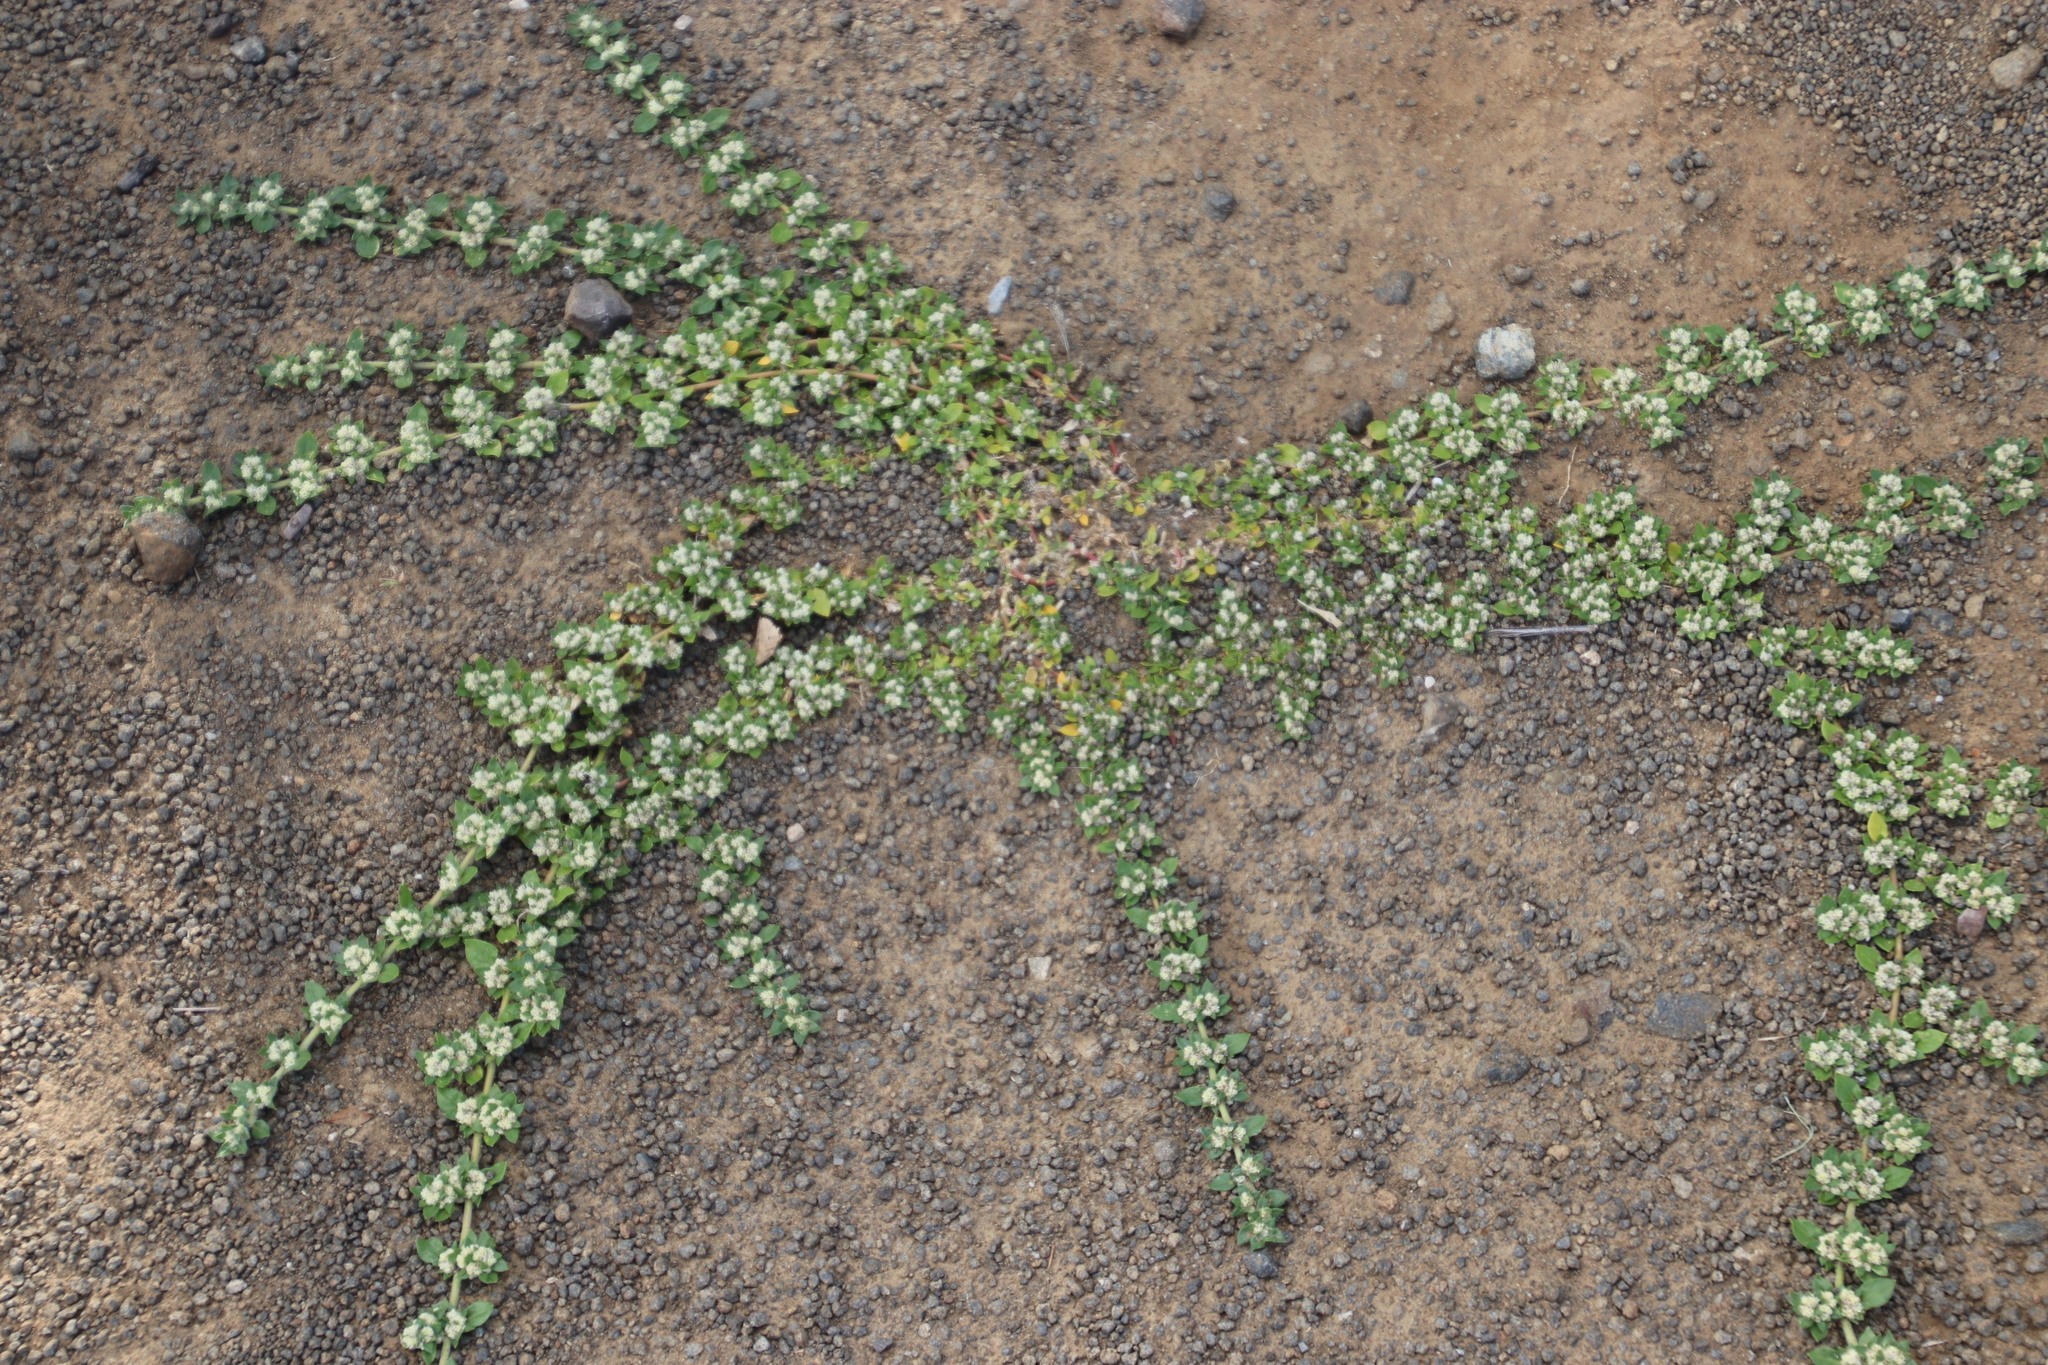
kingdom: Plantae
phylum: Tracheophyta
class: Magnoliopsida
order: Caryophyllales
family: Amaranthaceae
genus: Guilleminea
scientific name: Guilleminea densa
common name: Small matweed
